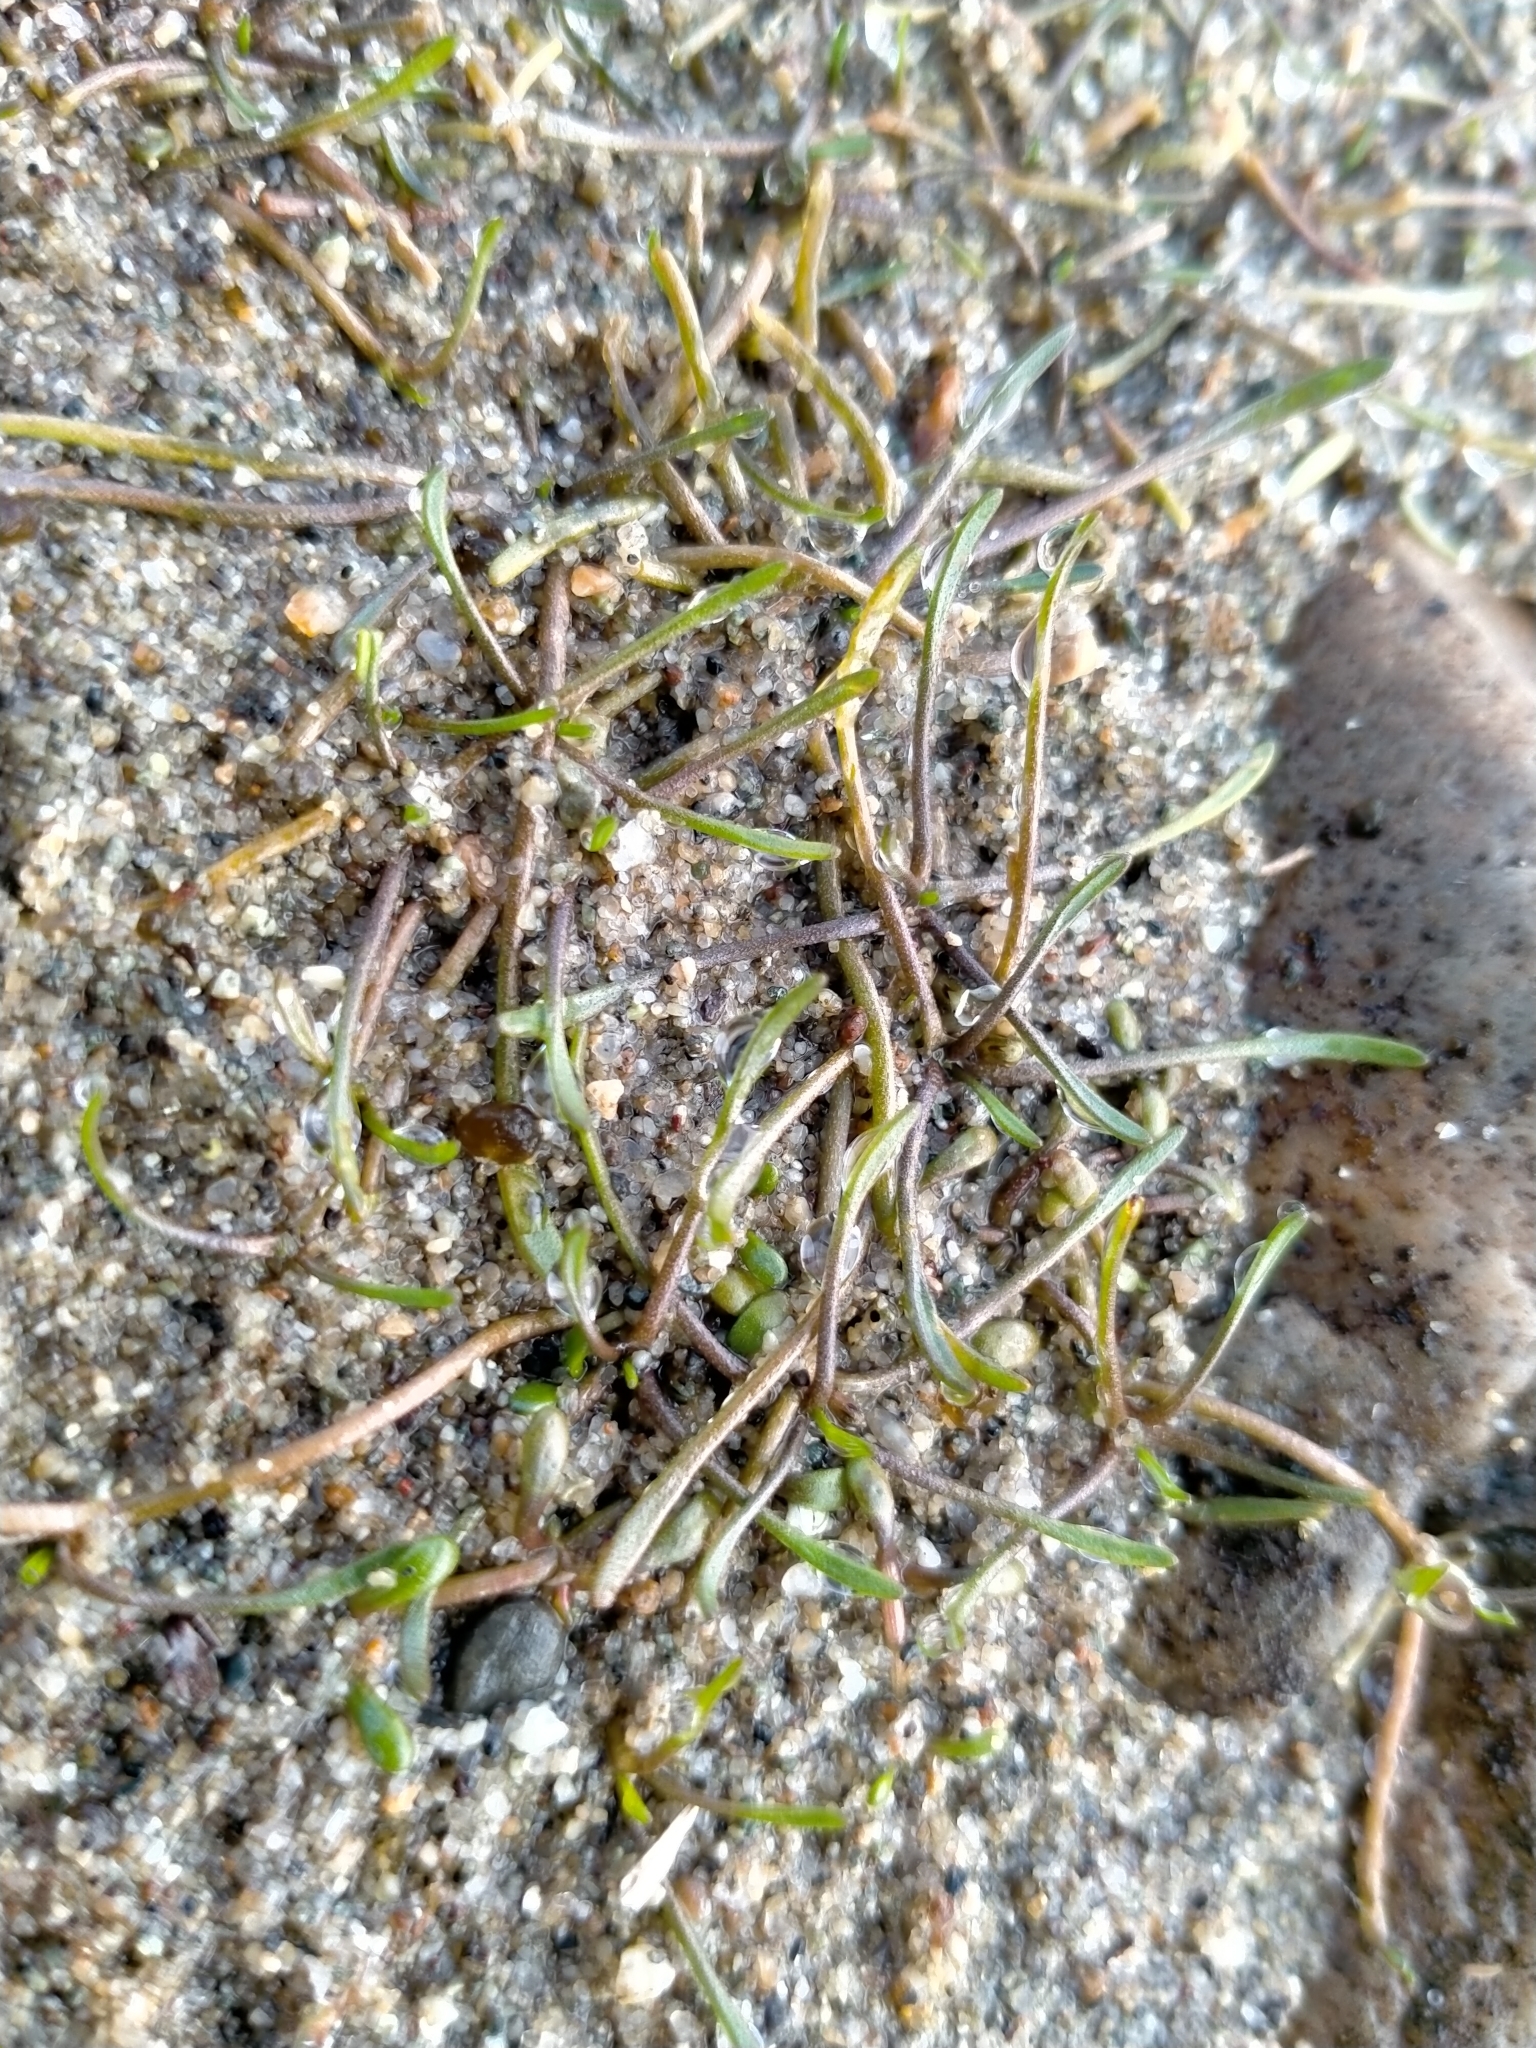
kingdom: Plantae
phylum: Tracheophyta
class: Magnoliopsida
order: Lamiales
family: Scrophulariaceae
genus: Limosella
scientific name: Limosella australis
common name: Welsh mudwort
